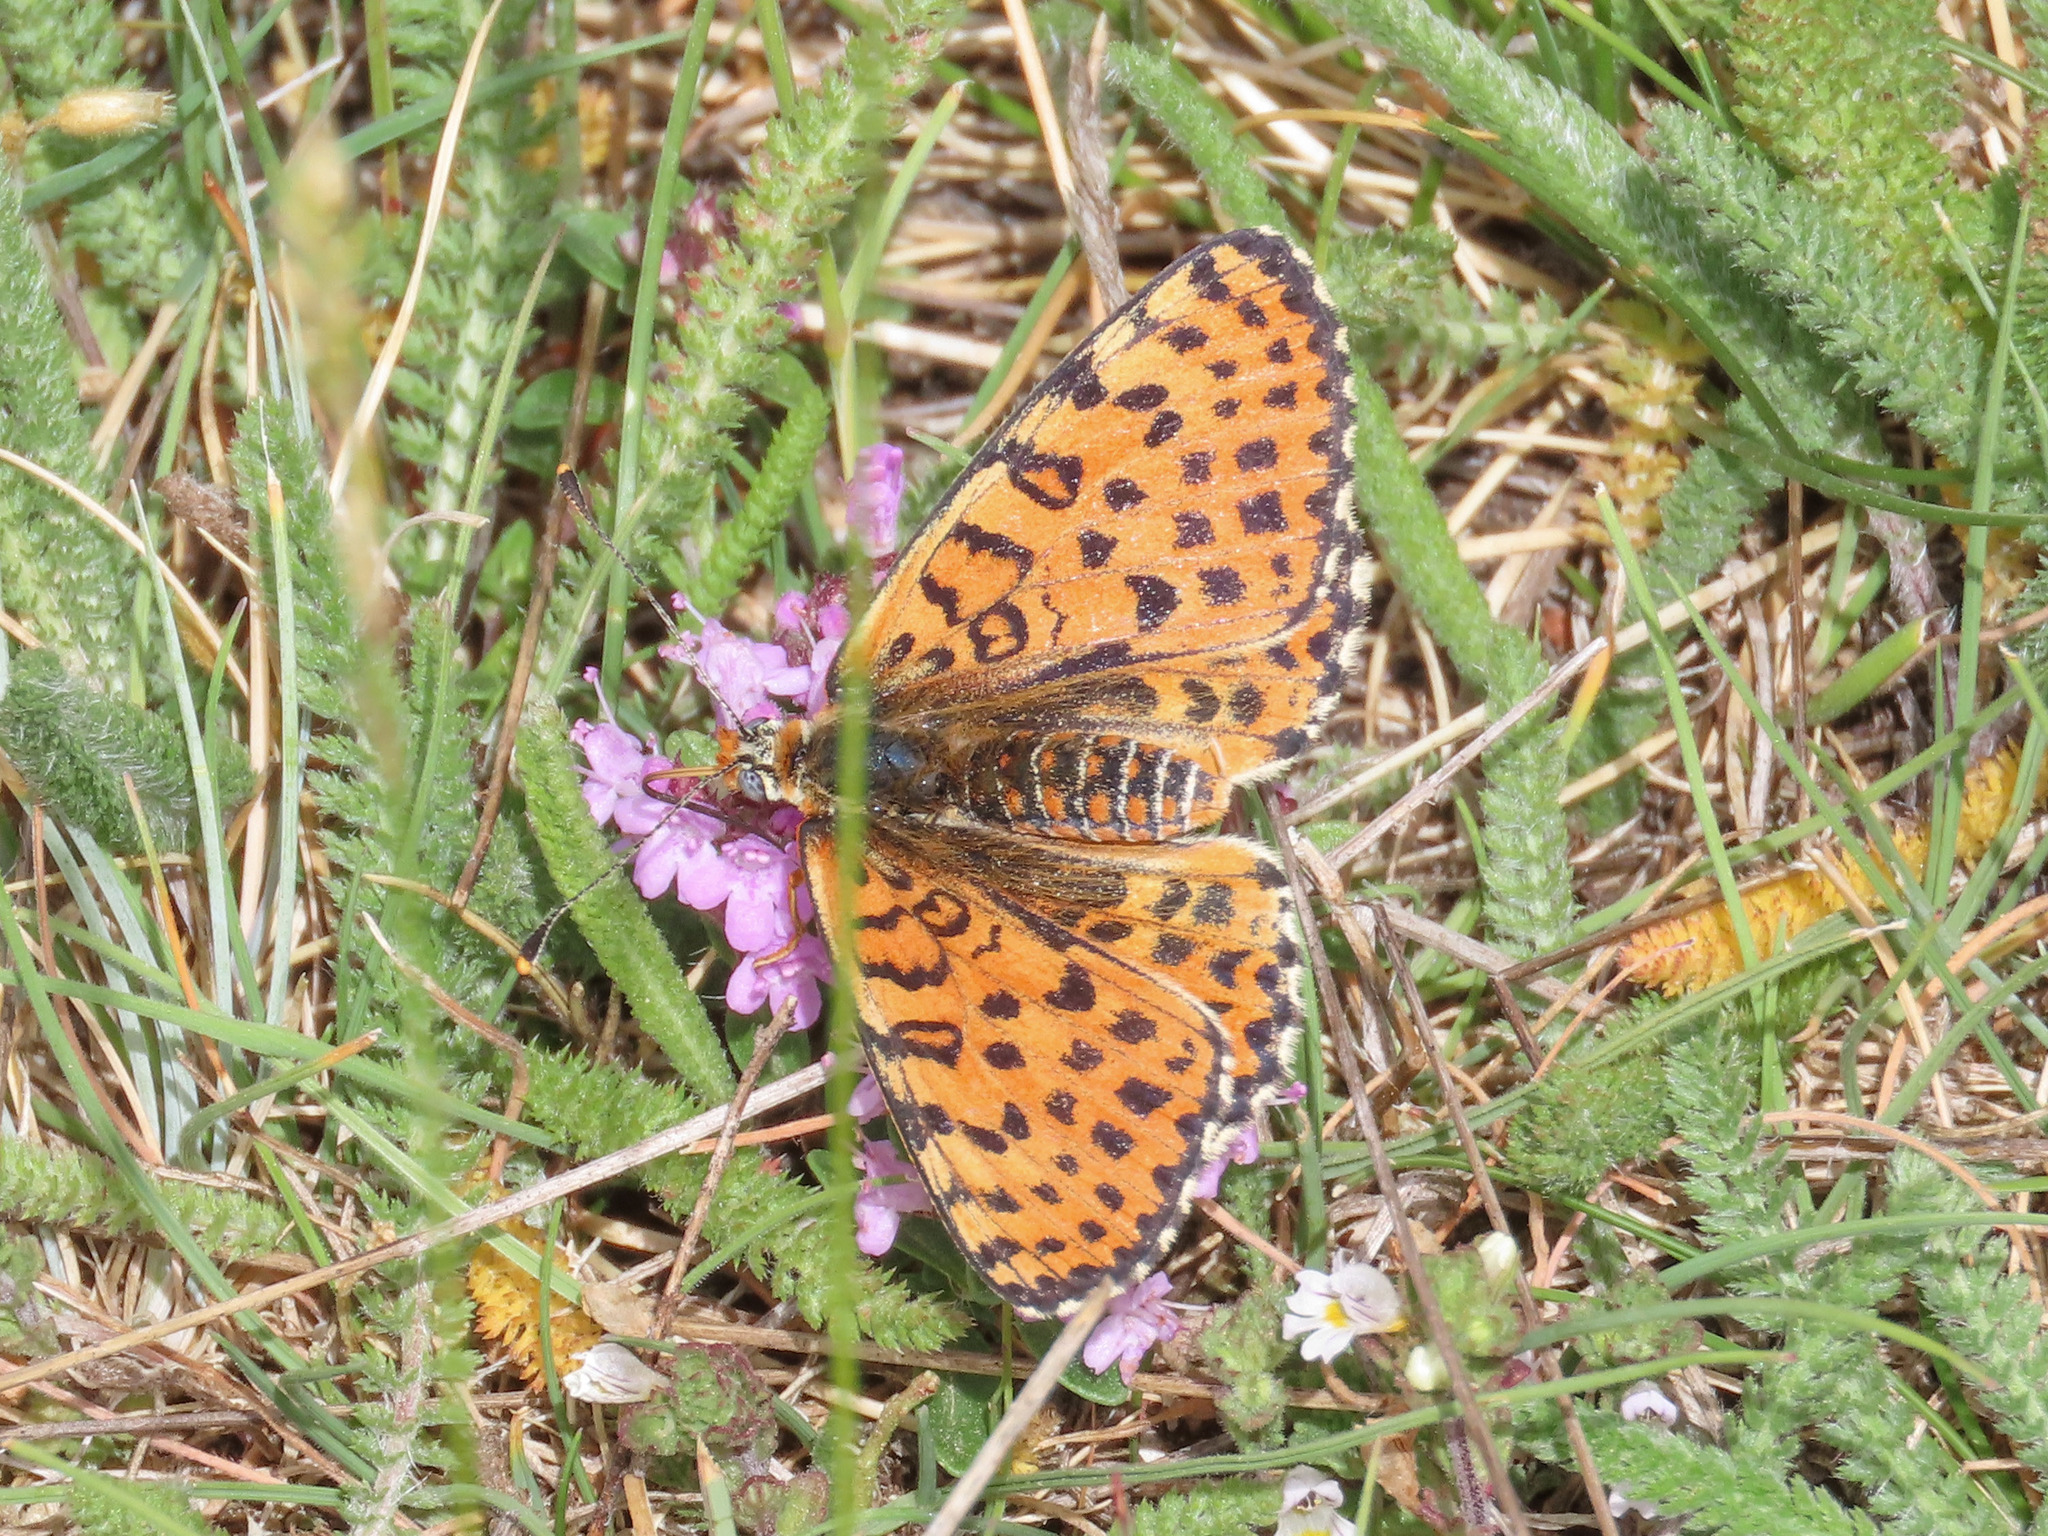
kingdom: Animalia
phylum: Arthropoda
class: Insecta
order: Lepidoptera
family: Nymphalidae
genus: Melitaea
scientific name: Melitaea didyma
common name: Spotted fritillary
